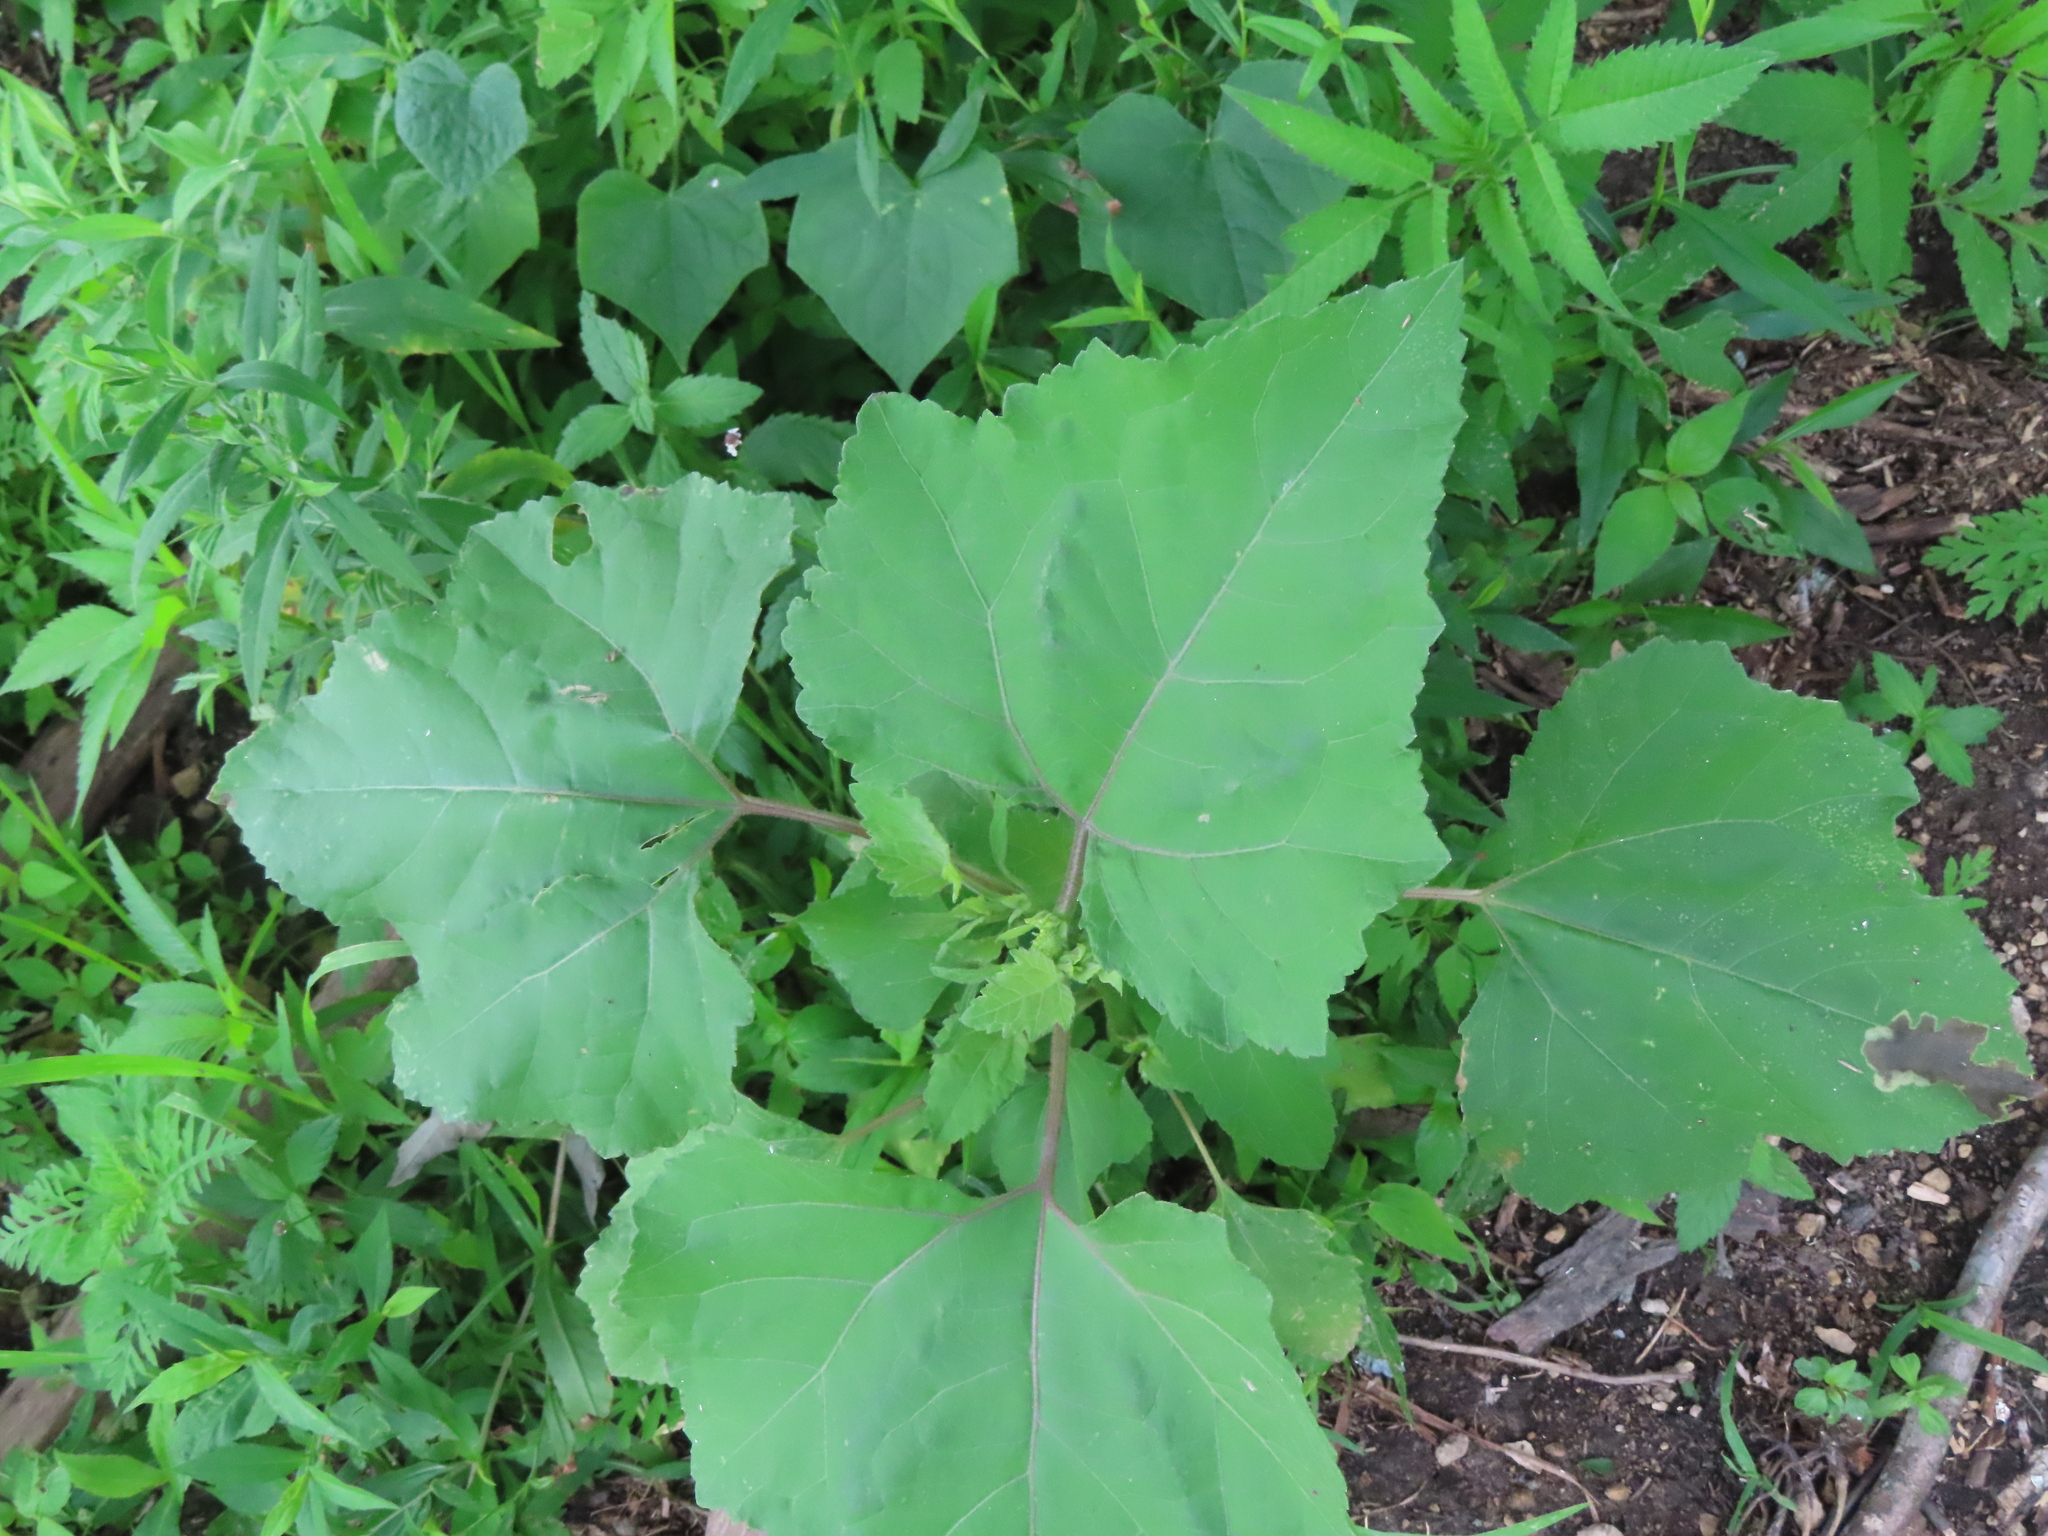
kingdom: Plantae
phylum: Tracheophyta
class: Magnoliopsida
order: Asterales
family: Asteraceae
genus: Xanthium
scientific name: Xanthium strumarium
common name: Rough cocklebur
